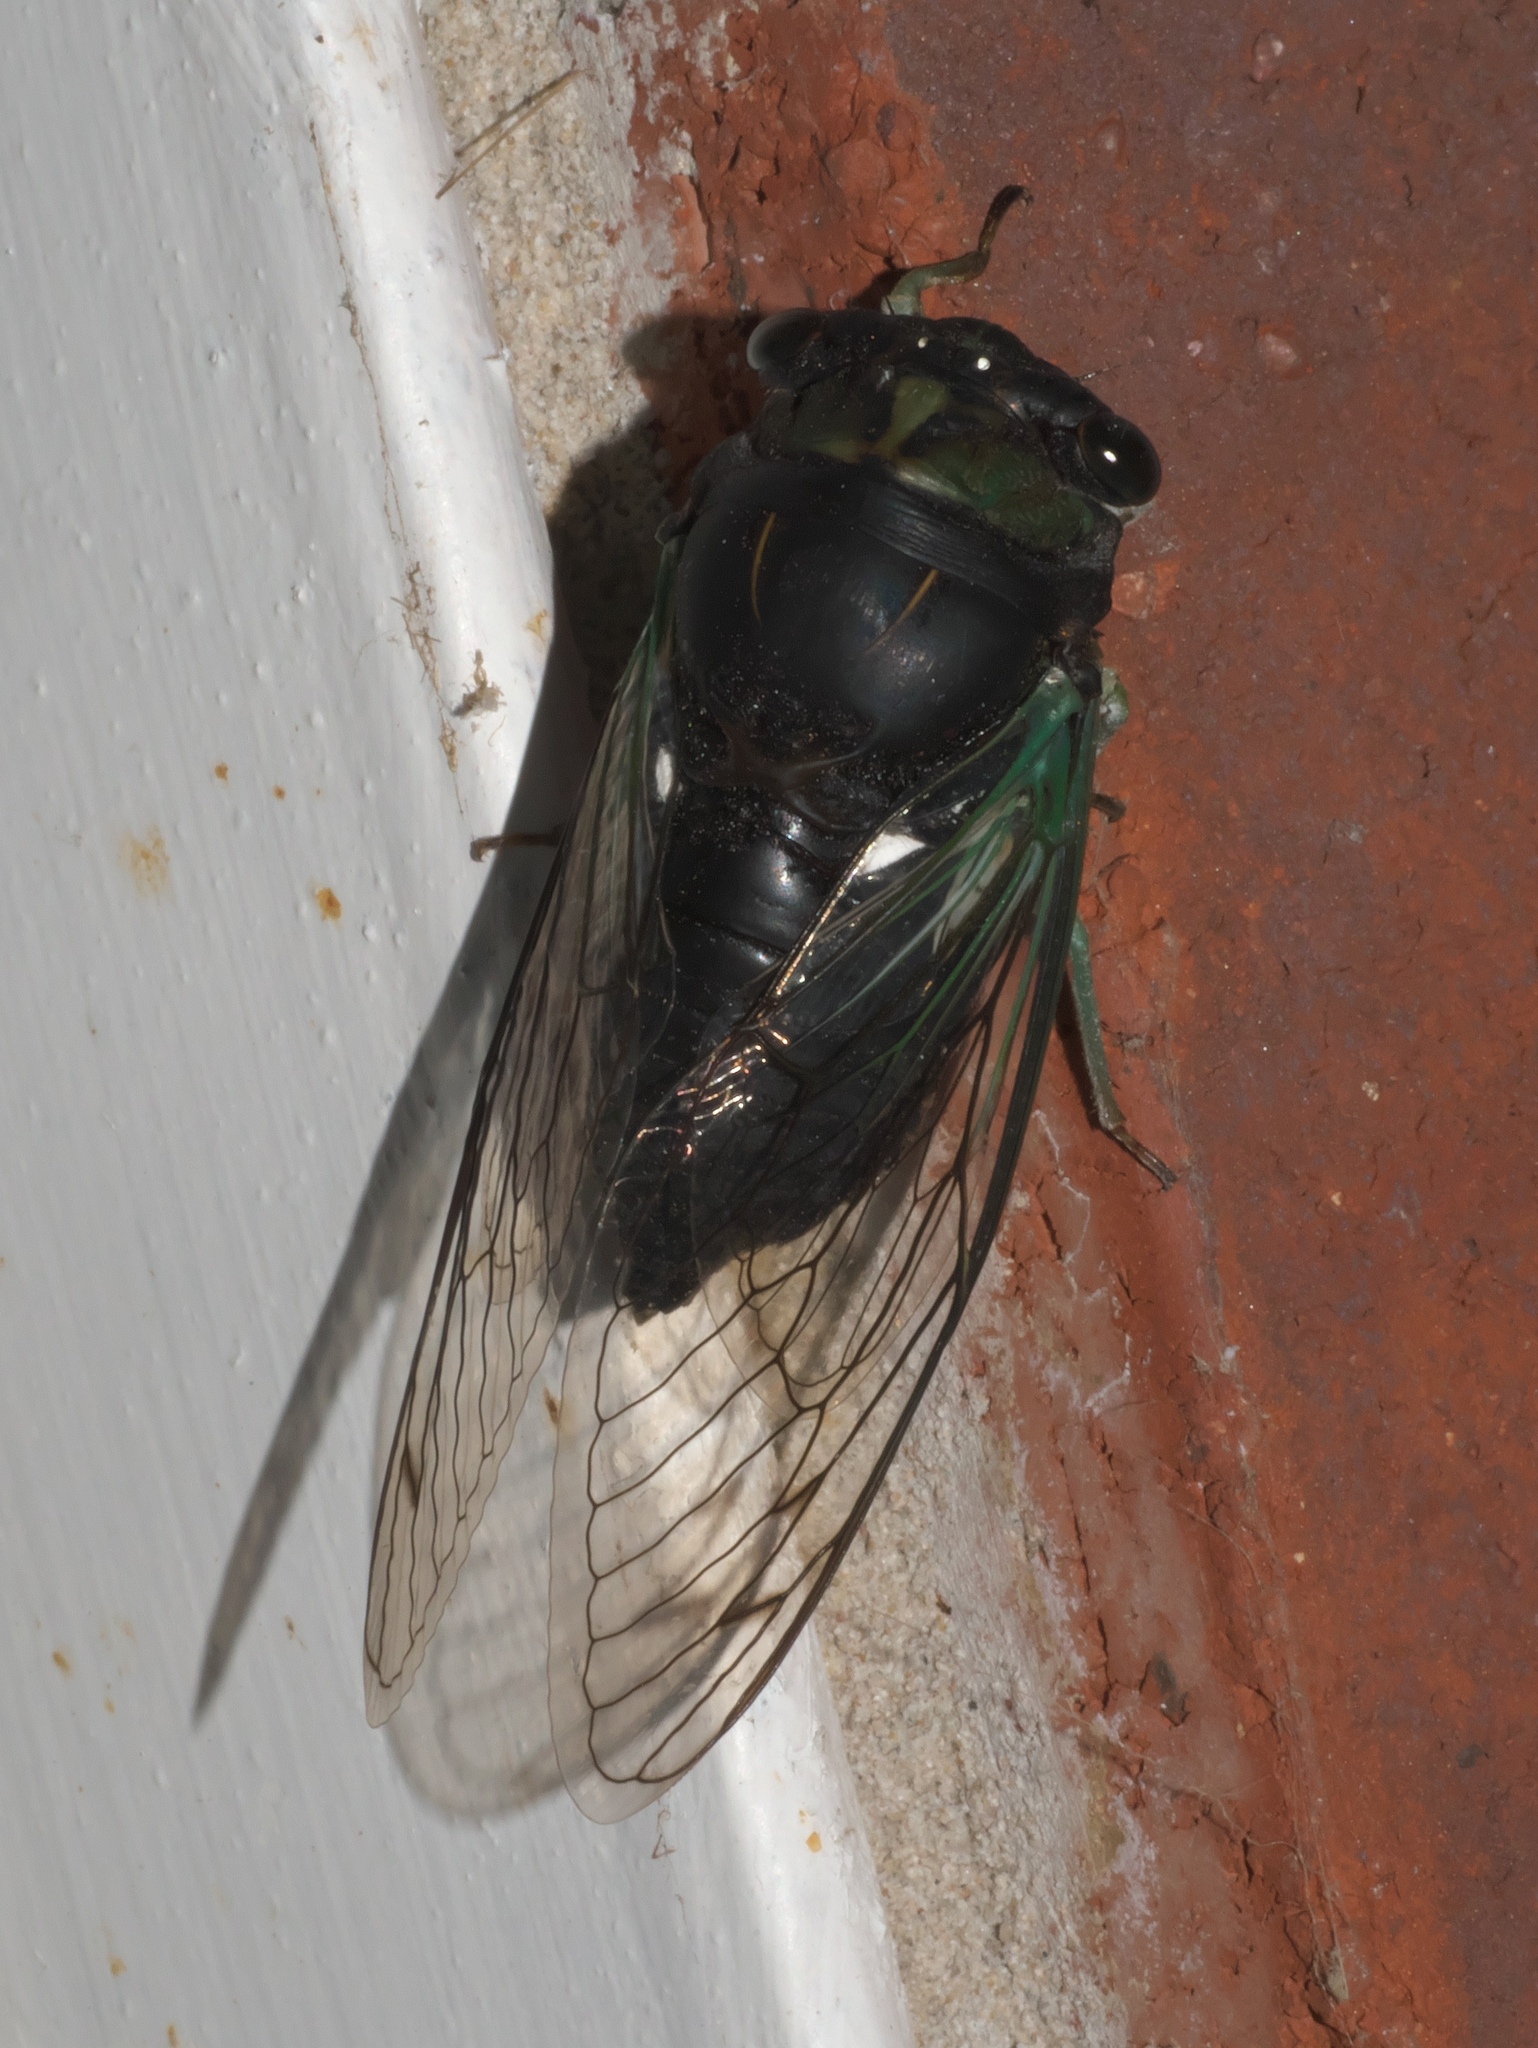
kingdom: Animalia
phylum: Arthropoda
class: Insecta
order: Hemiptera
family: Cicadidae
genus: Neotibicen
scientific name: Neotibicen tibicen
